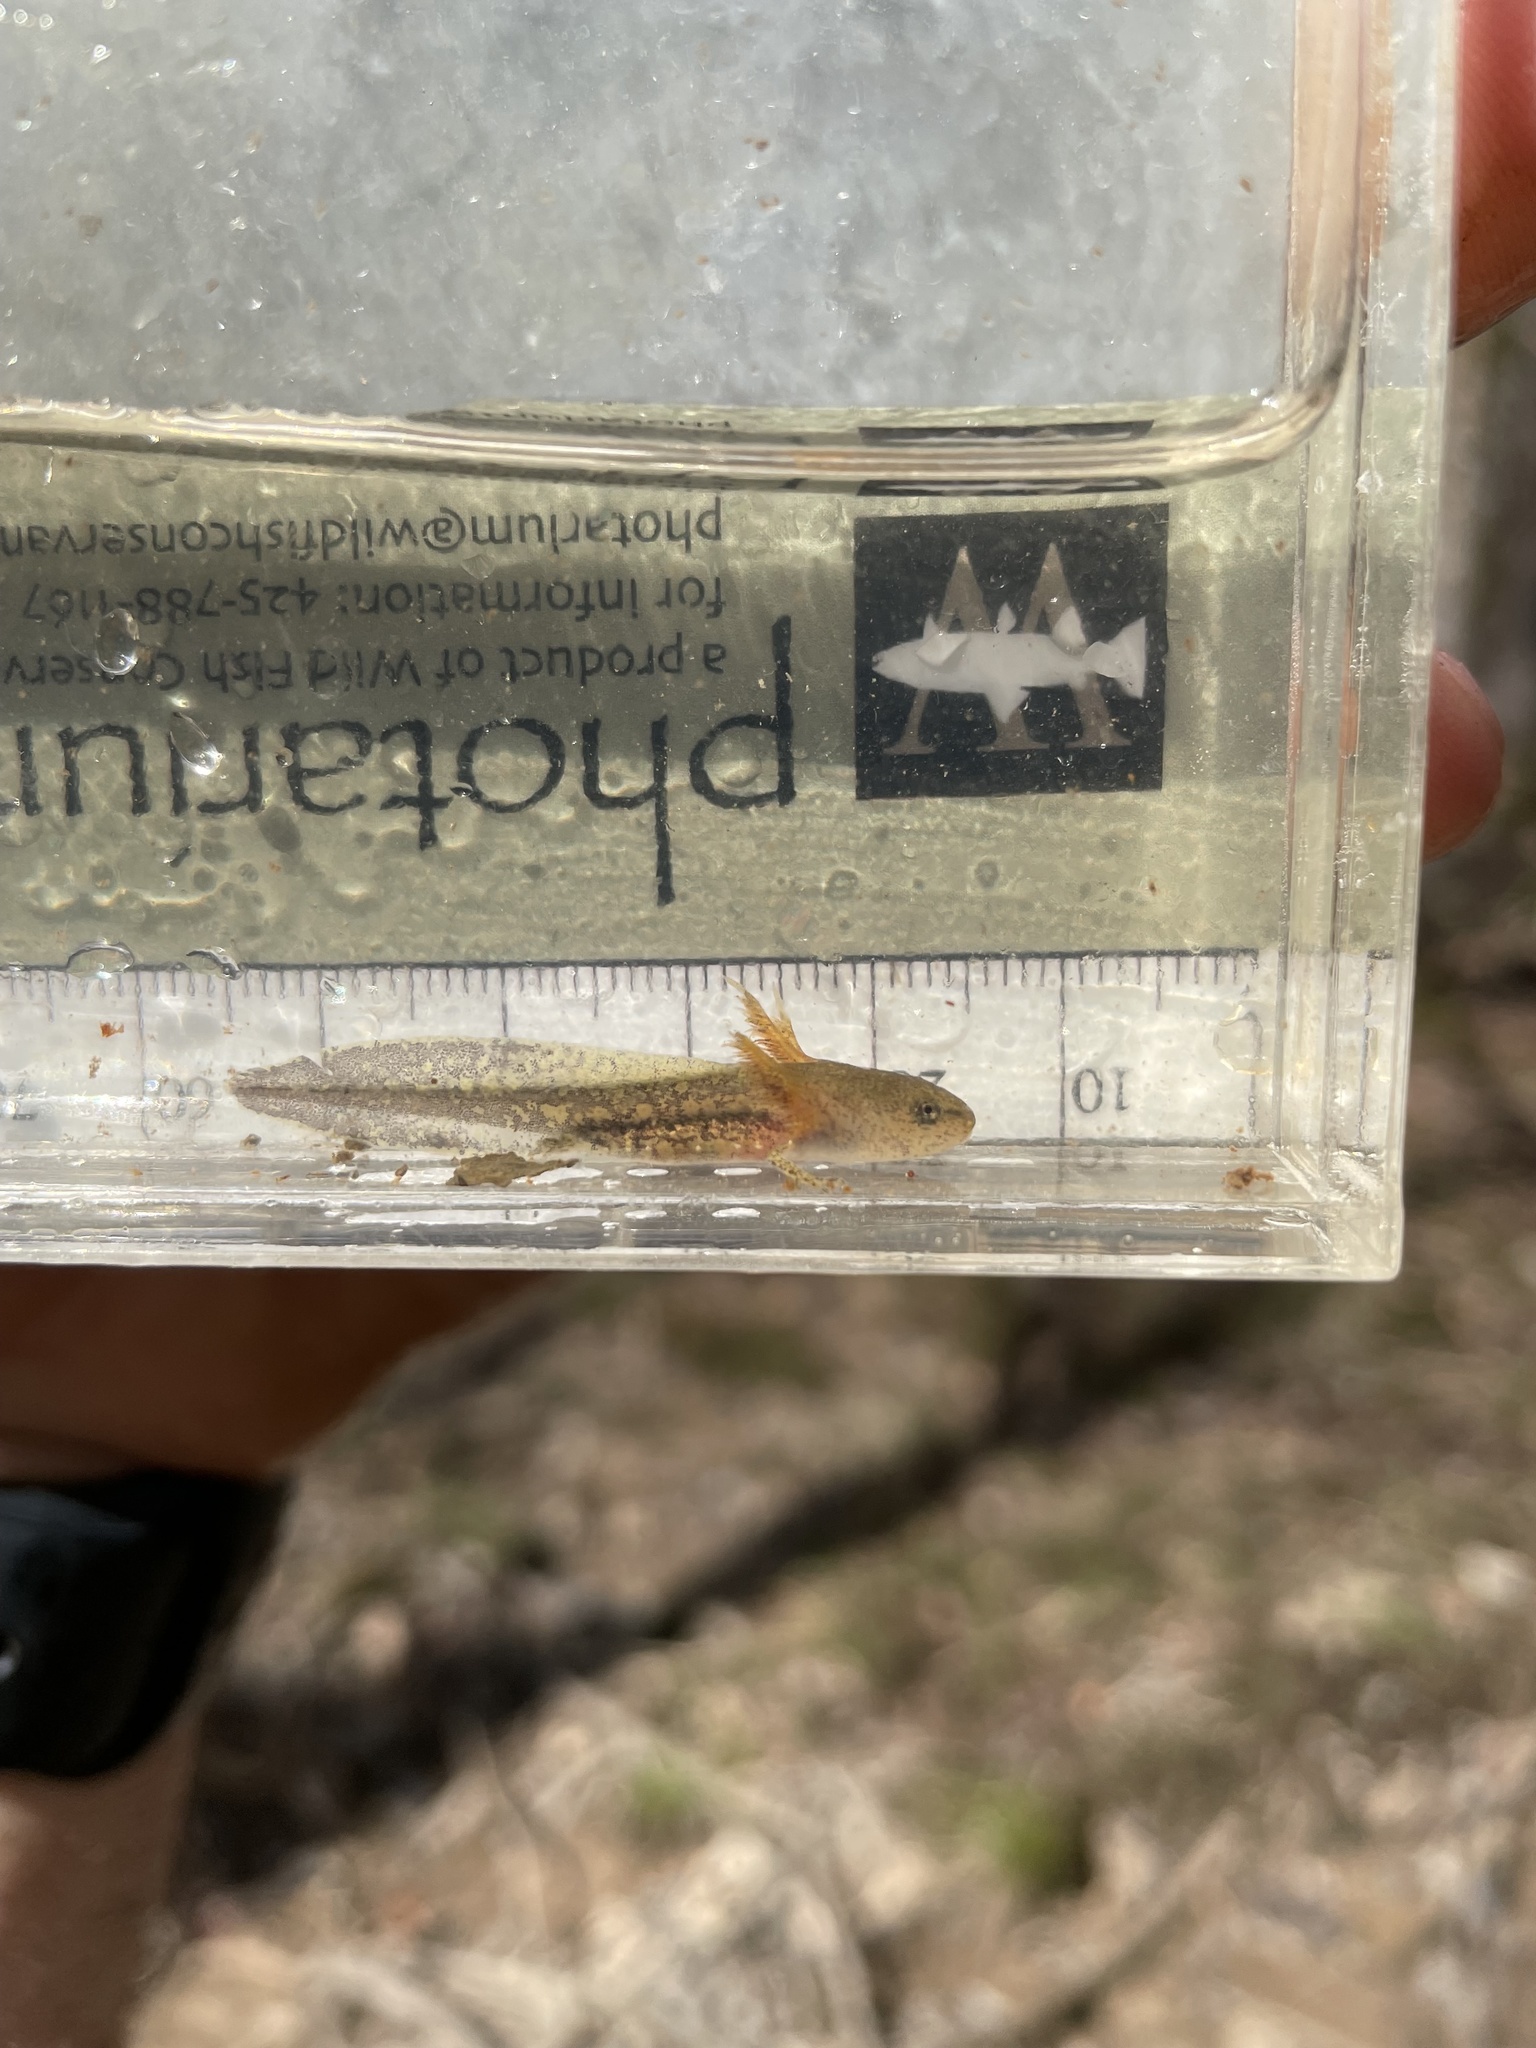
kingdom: Animalia
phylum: Chordata
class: Amphibia
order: Caudata
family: Ambystomatidae
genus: Ambystoma
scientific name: Ambystoma opacum
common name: Marbled salamander
